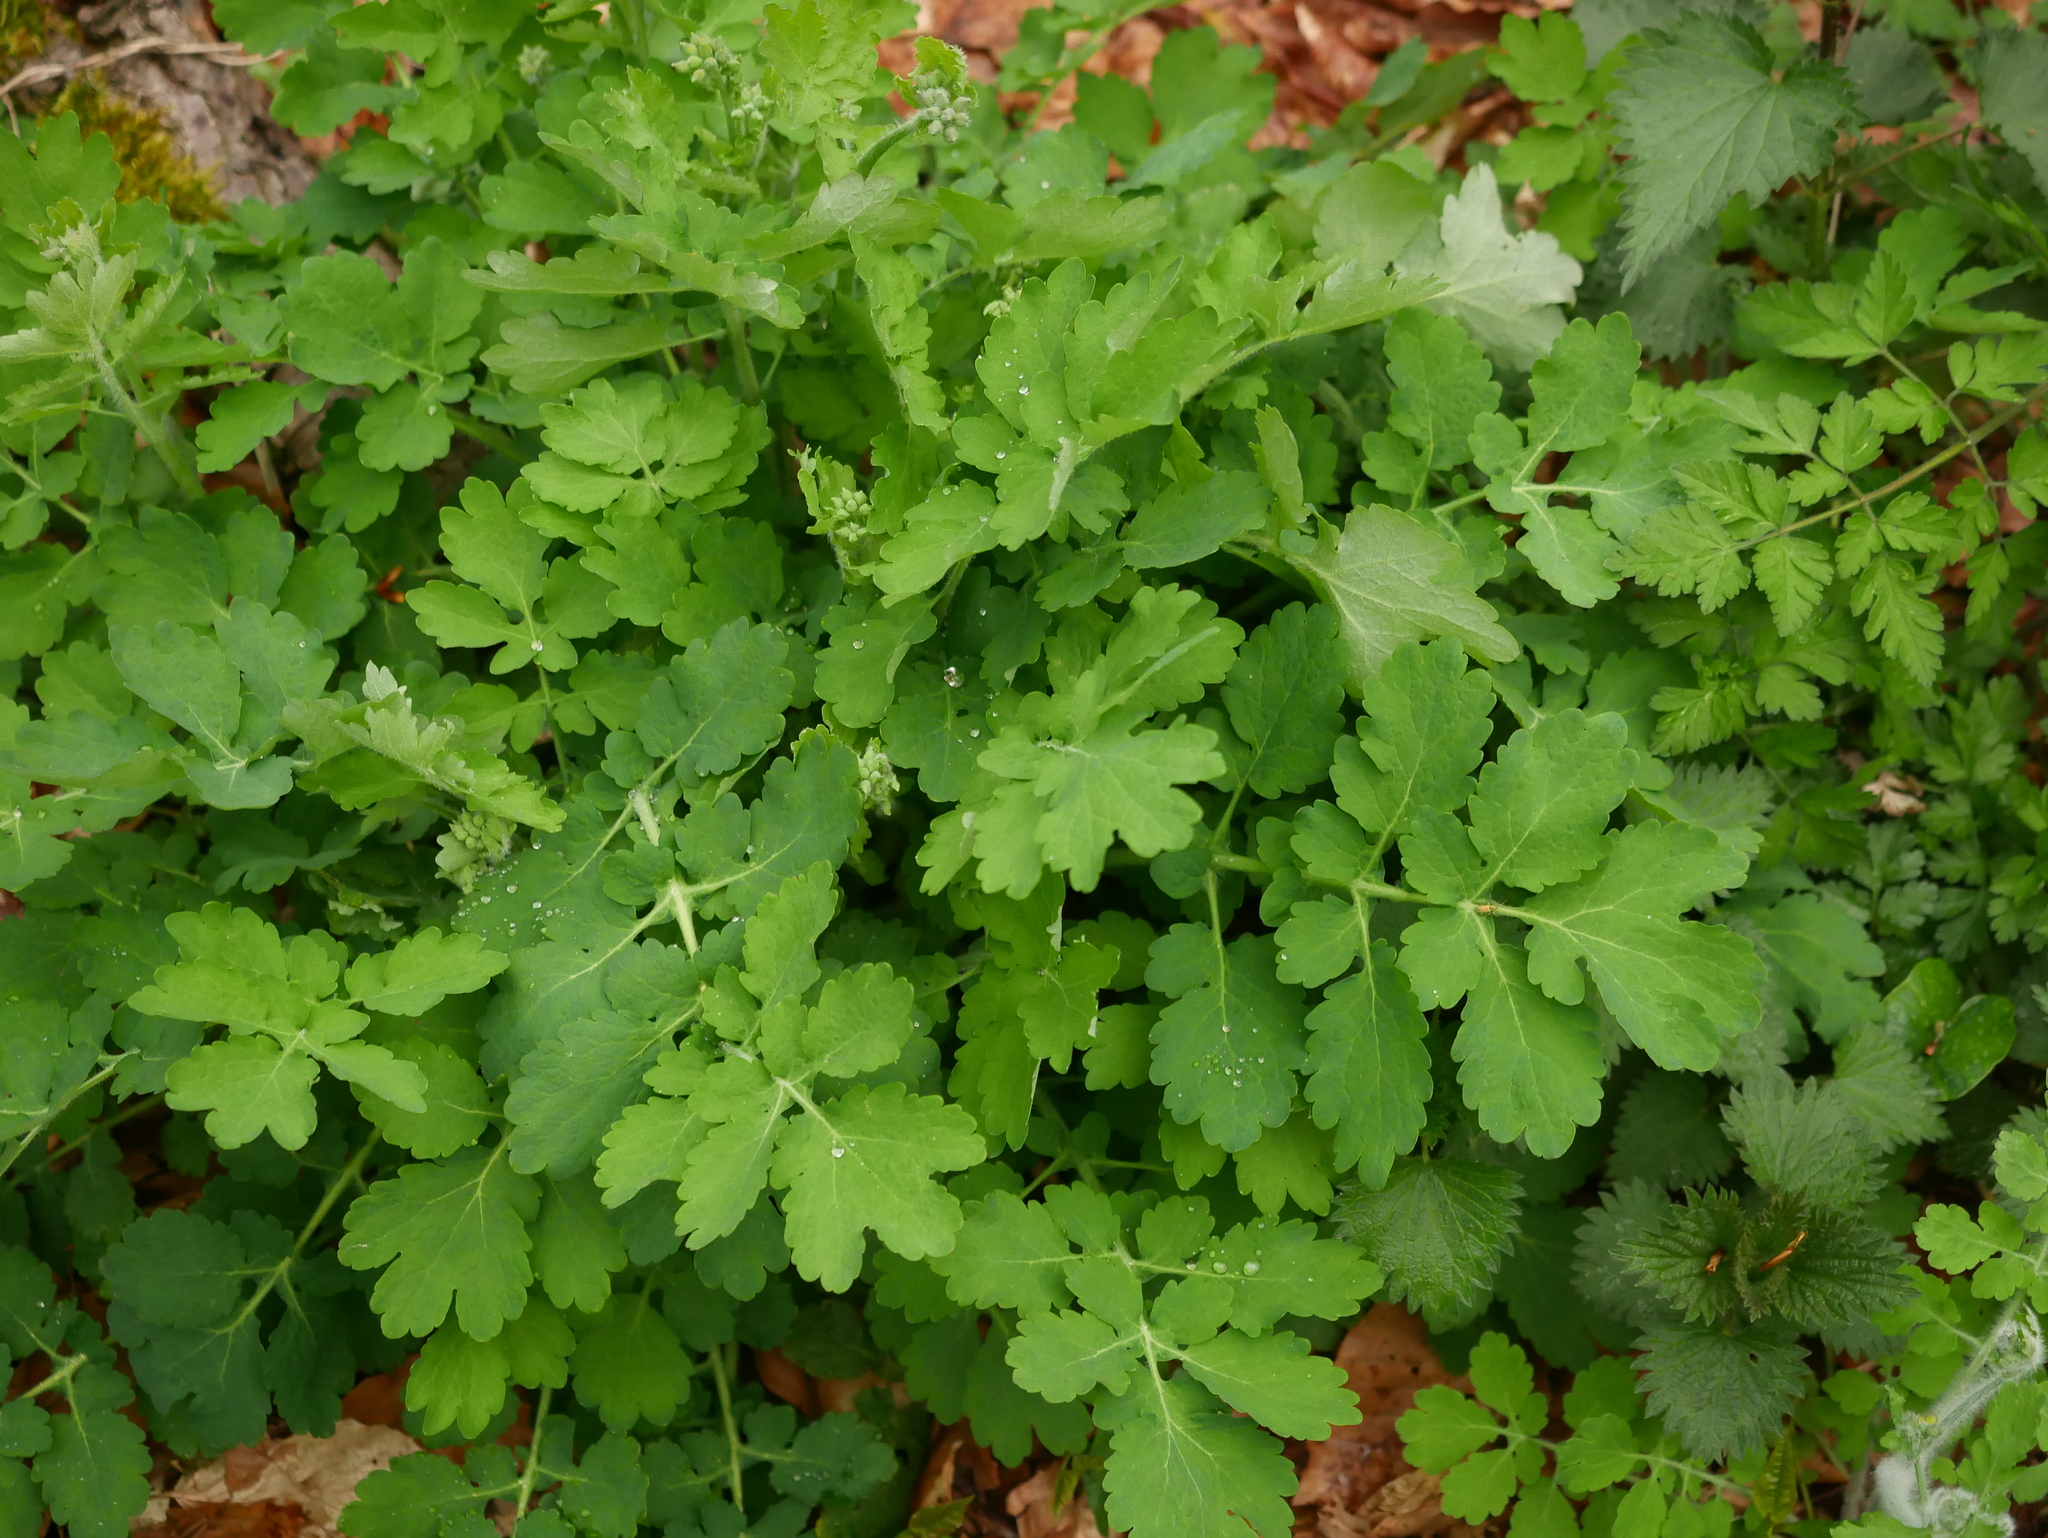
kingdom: Plantae
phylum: Tracheophyta
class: Magnoliopsida
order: Ranunculales
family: Papaveraceae
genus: Chelidonium
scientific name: Chelidonium majus
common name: Greater celandine
